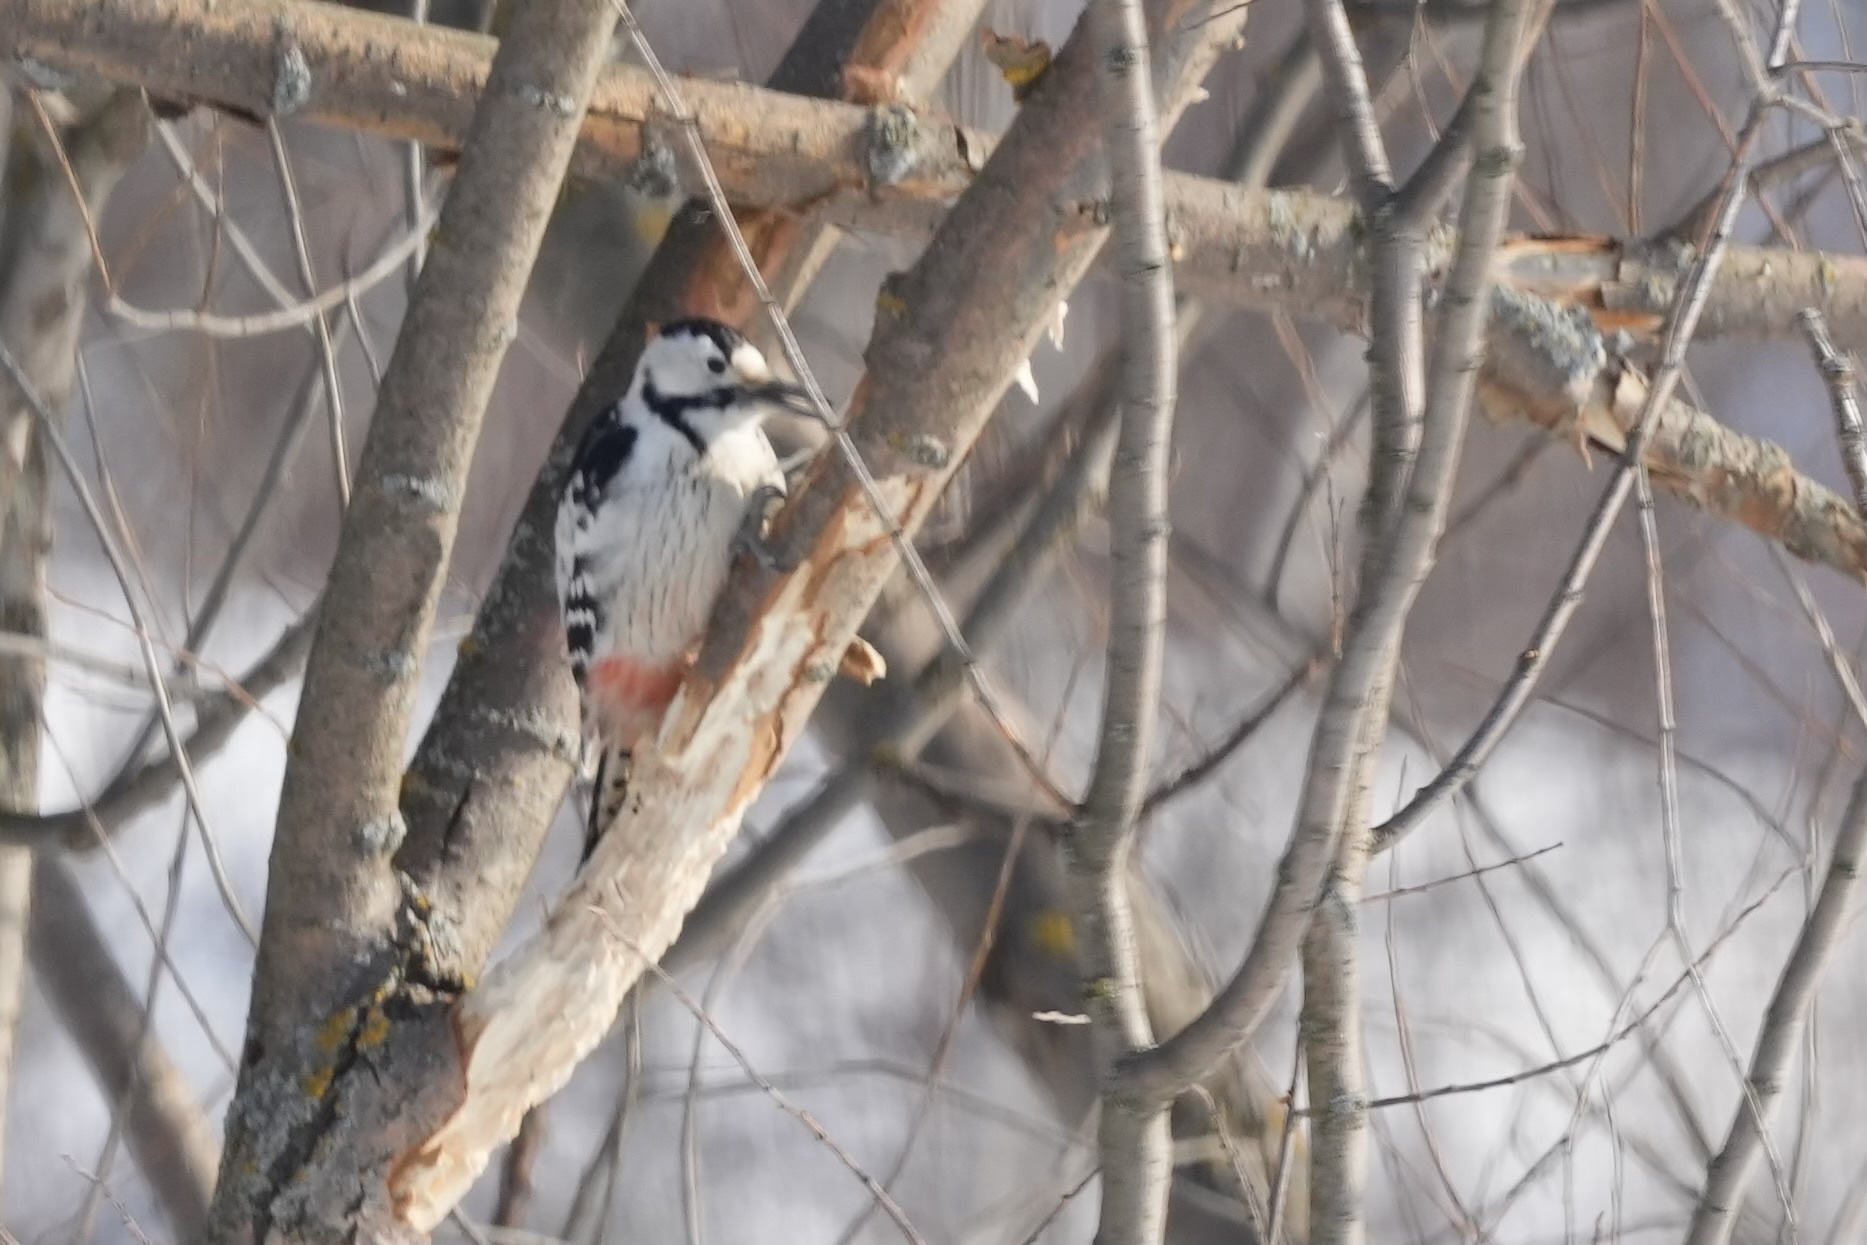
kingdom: Animalia
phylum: Chordata
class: Aves
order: Piciformes
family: Picidae
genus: Dendrocopos
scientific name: Dendrocopos leucotos
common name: White-backed woodpecker
